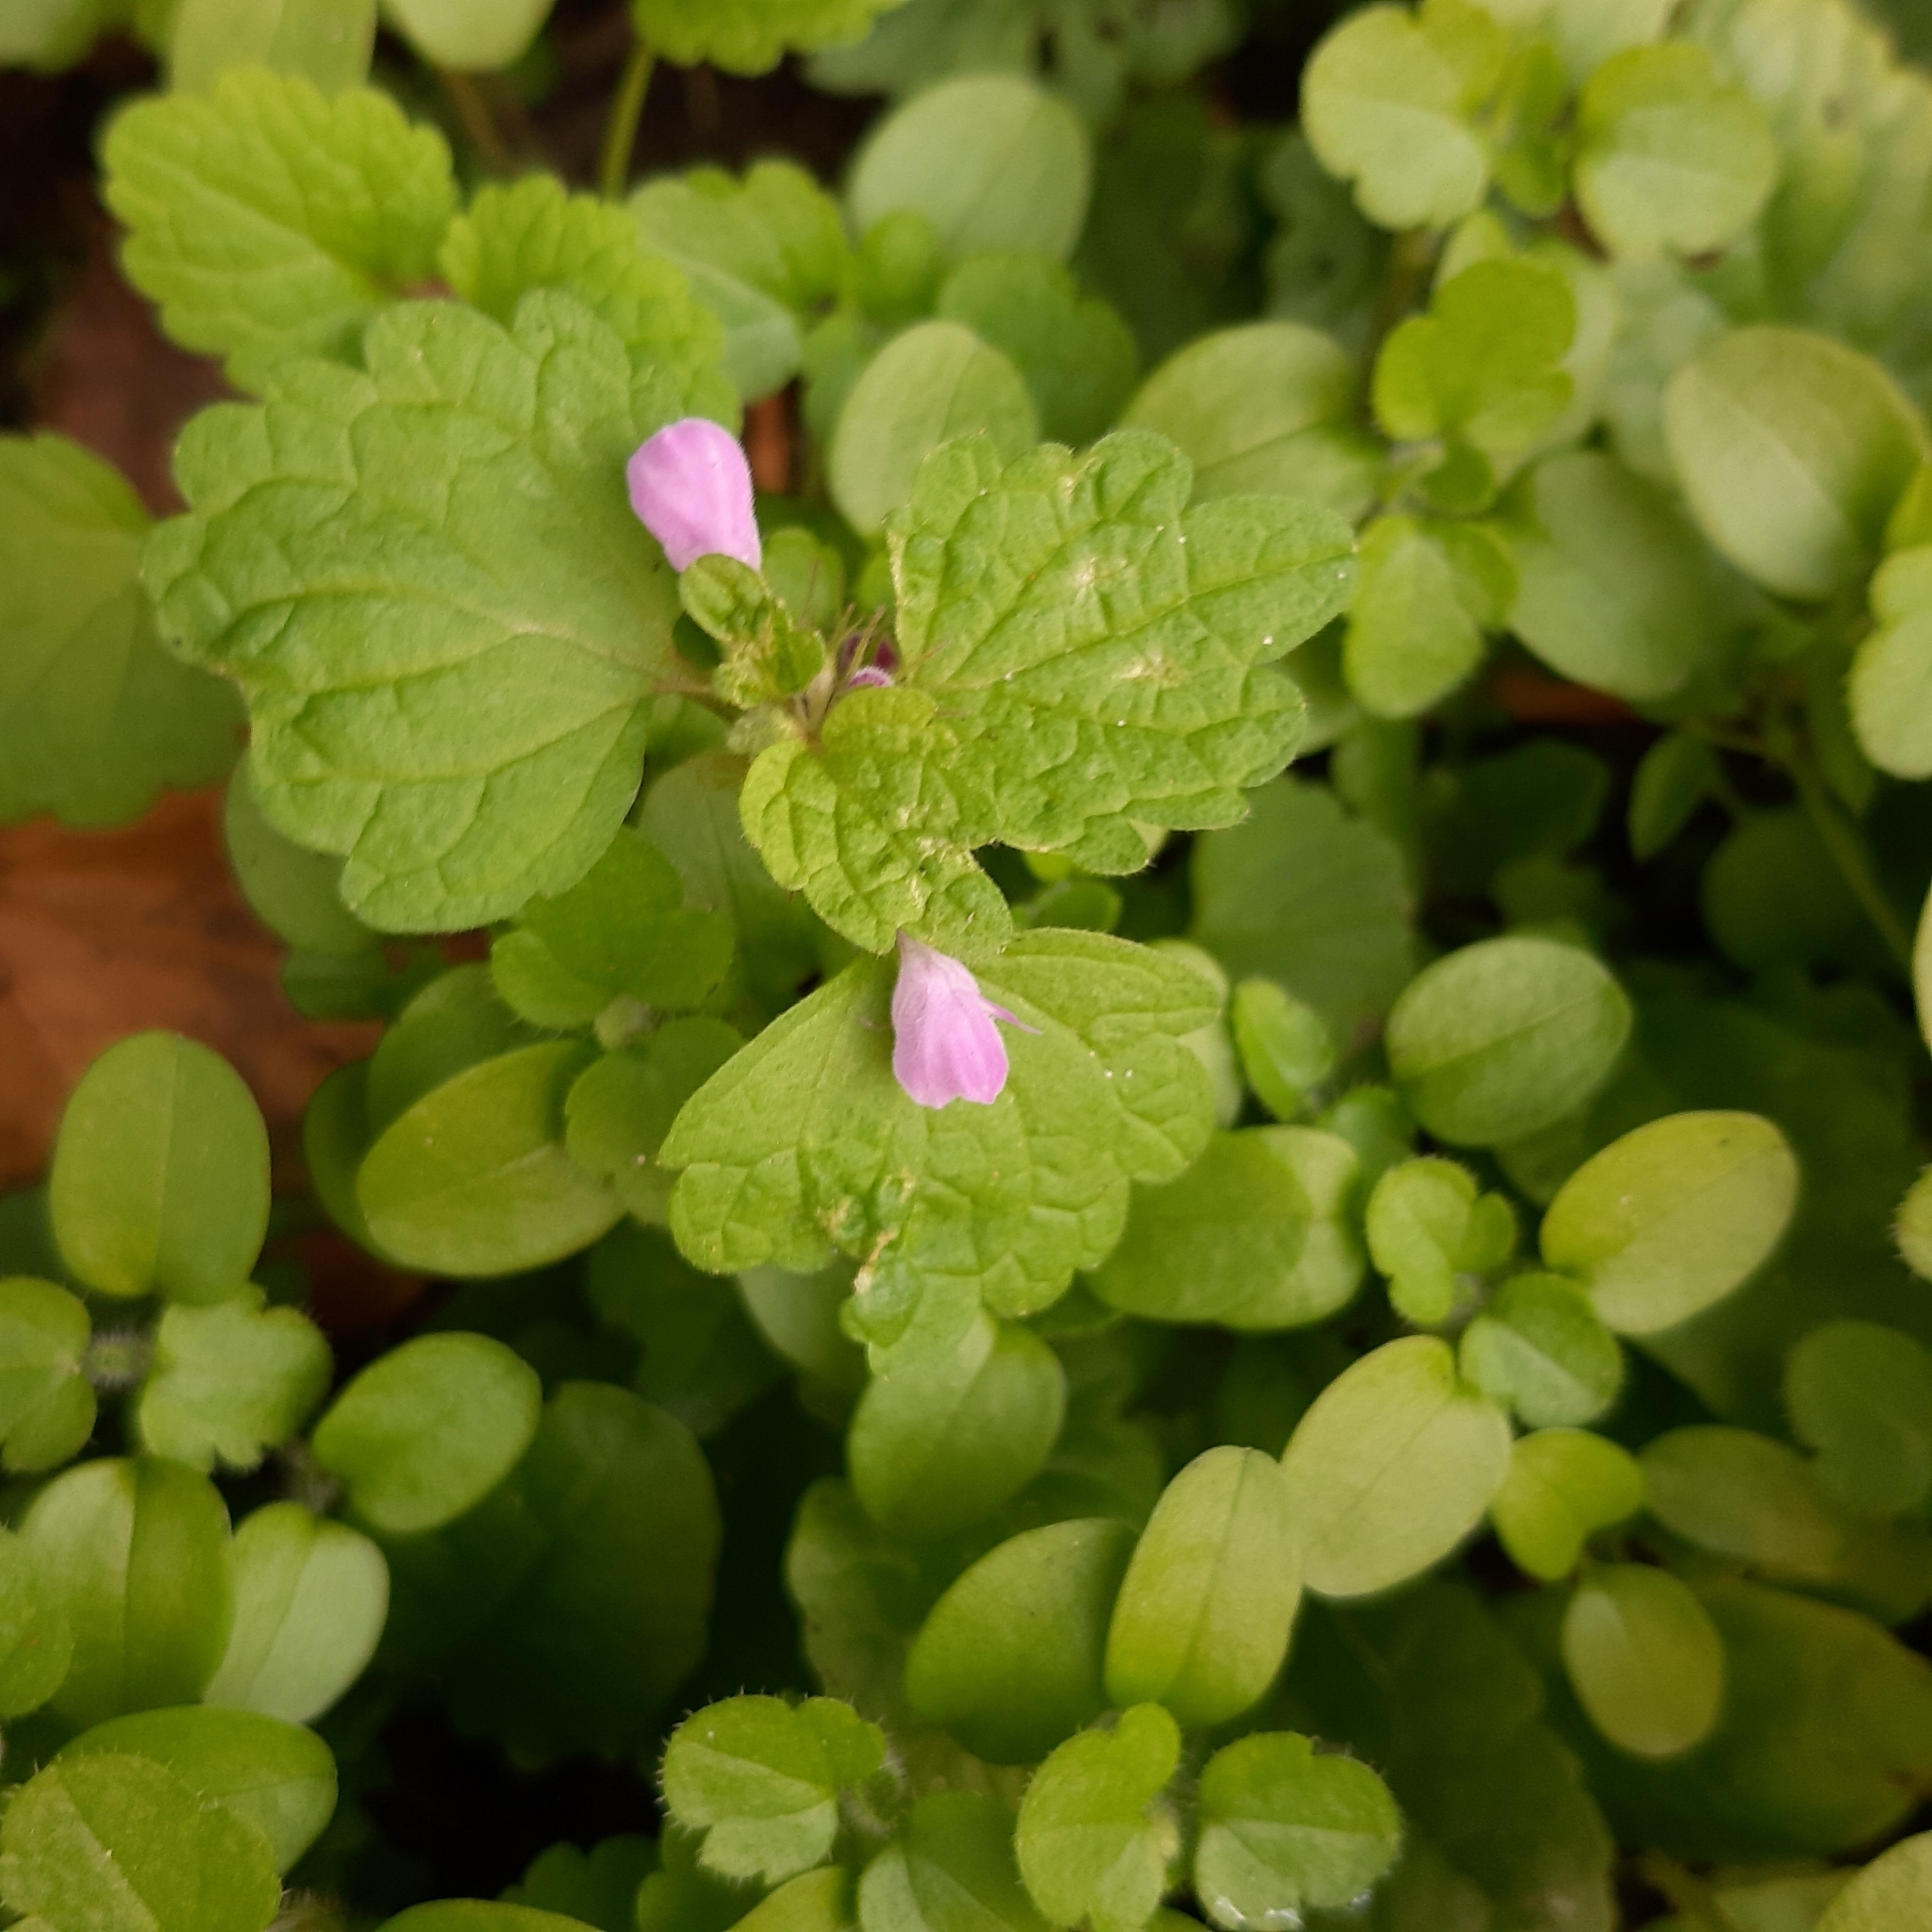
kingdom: Plantae
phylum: Tracheophyta
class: Magnoliopsida
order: Lamiales
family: Lamiaceae
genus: Lamium
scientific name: Lamium purpureum
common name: Red dead-nettle
